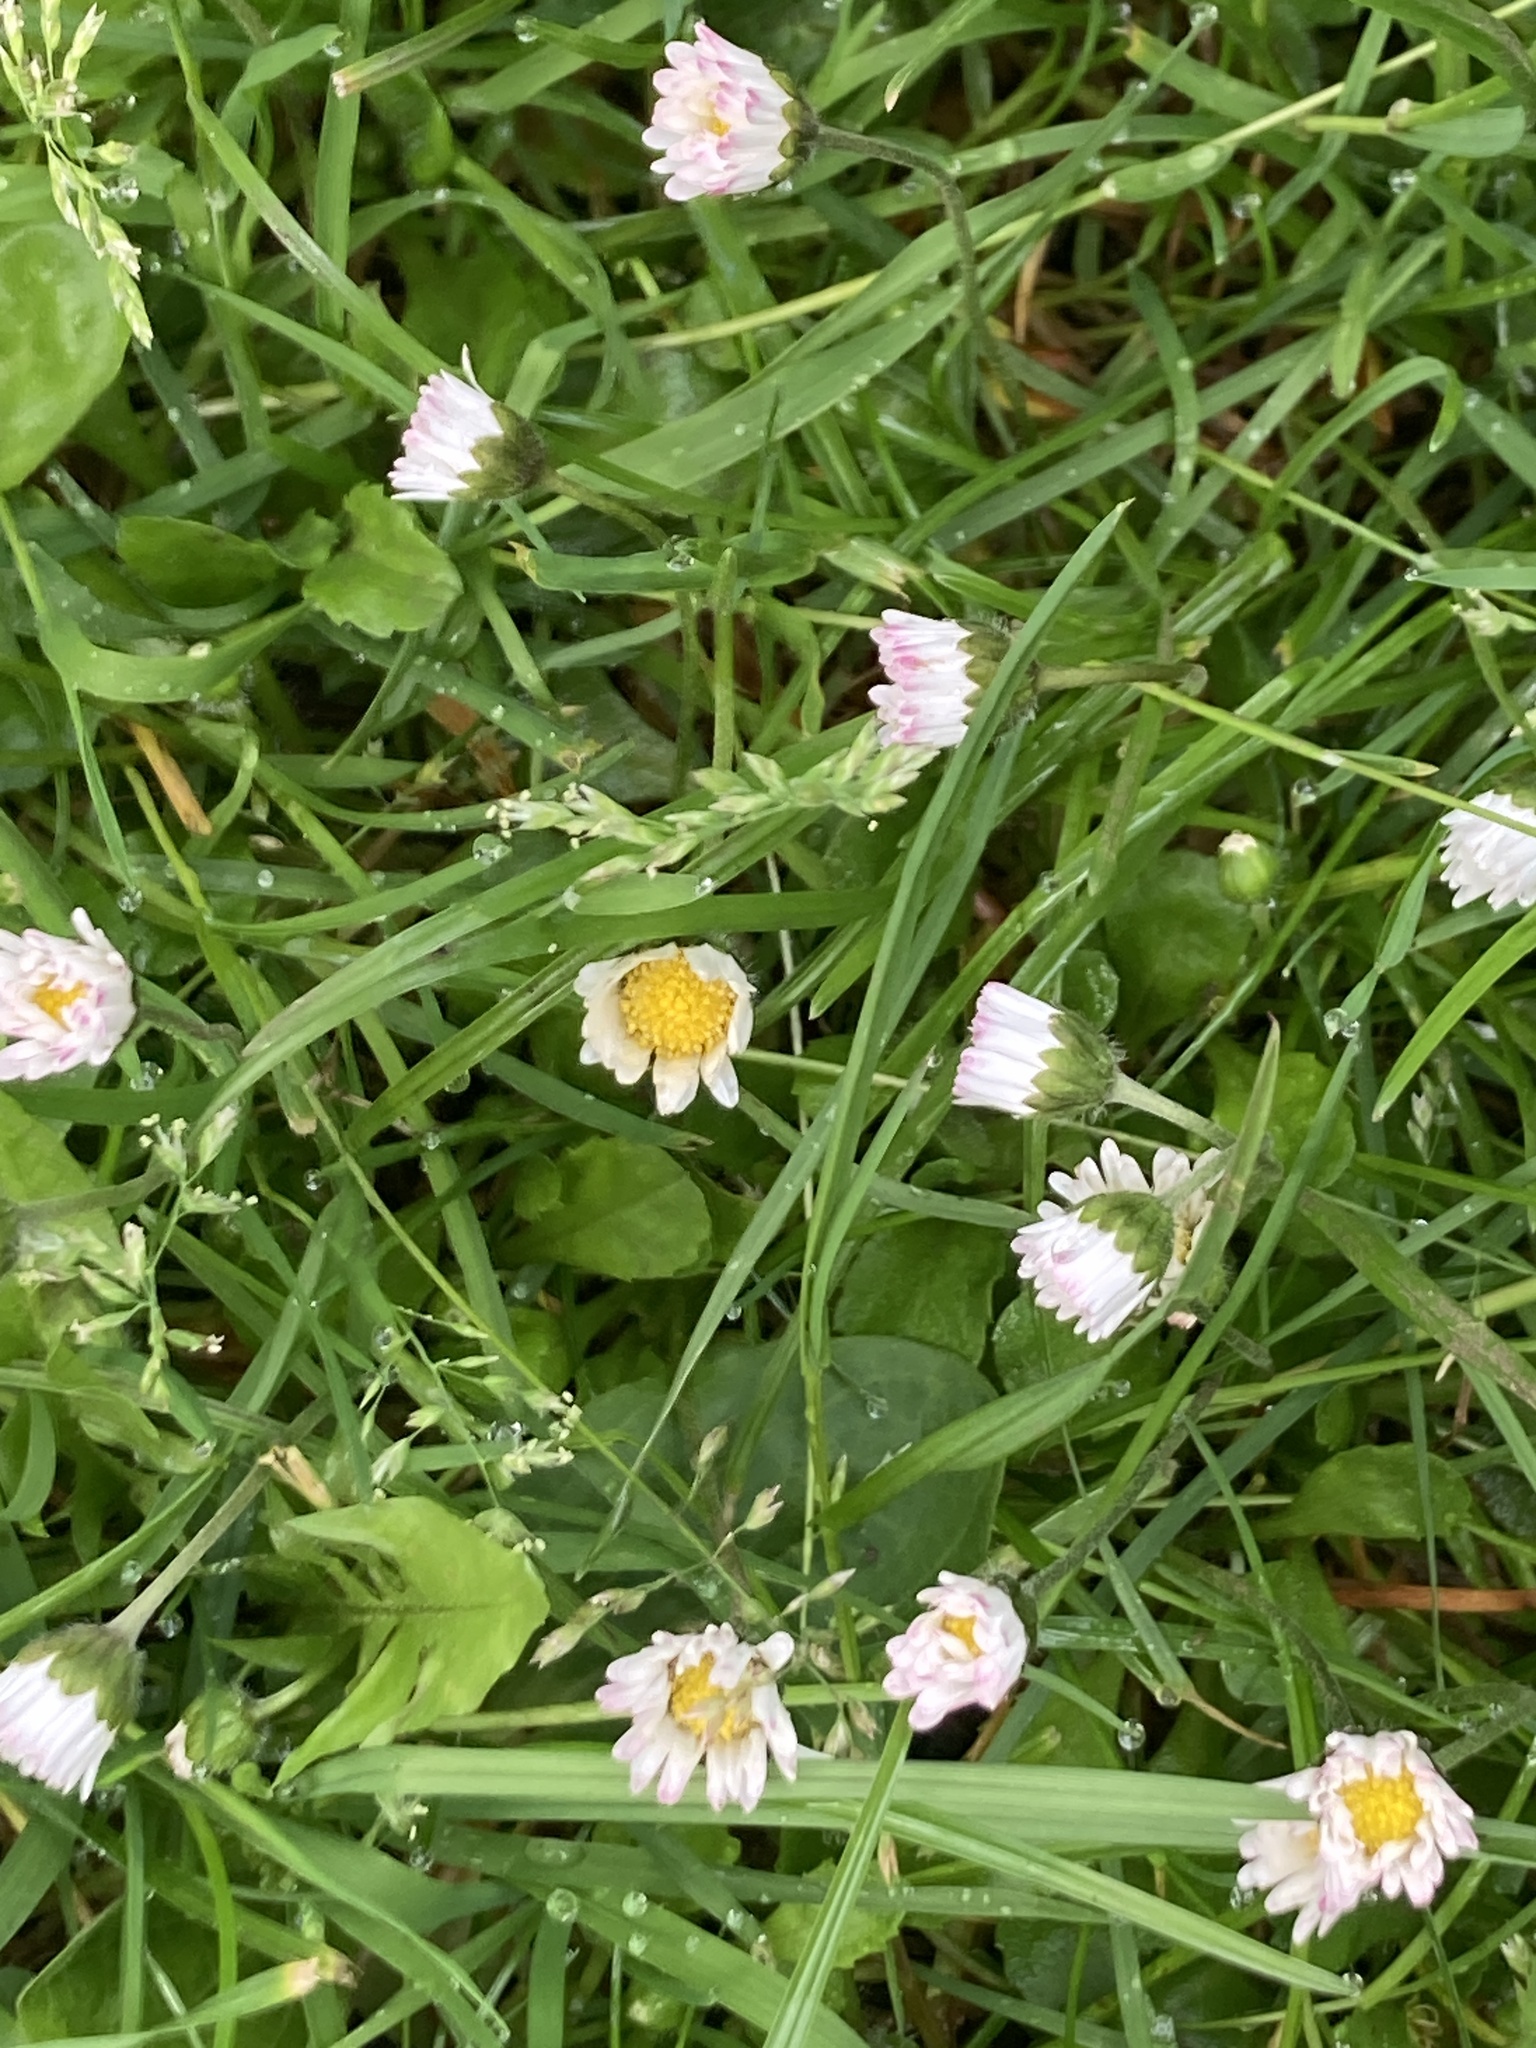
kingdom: Plantae
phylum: Tracheophyta
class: Magnoliopsida
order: Asterales
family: Asteraceae
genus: Bellis
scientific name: Bellis perennis
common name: Lawndaisy
